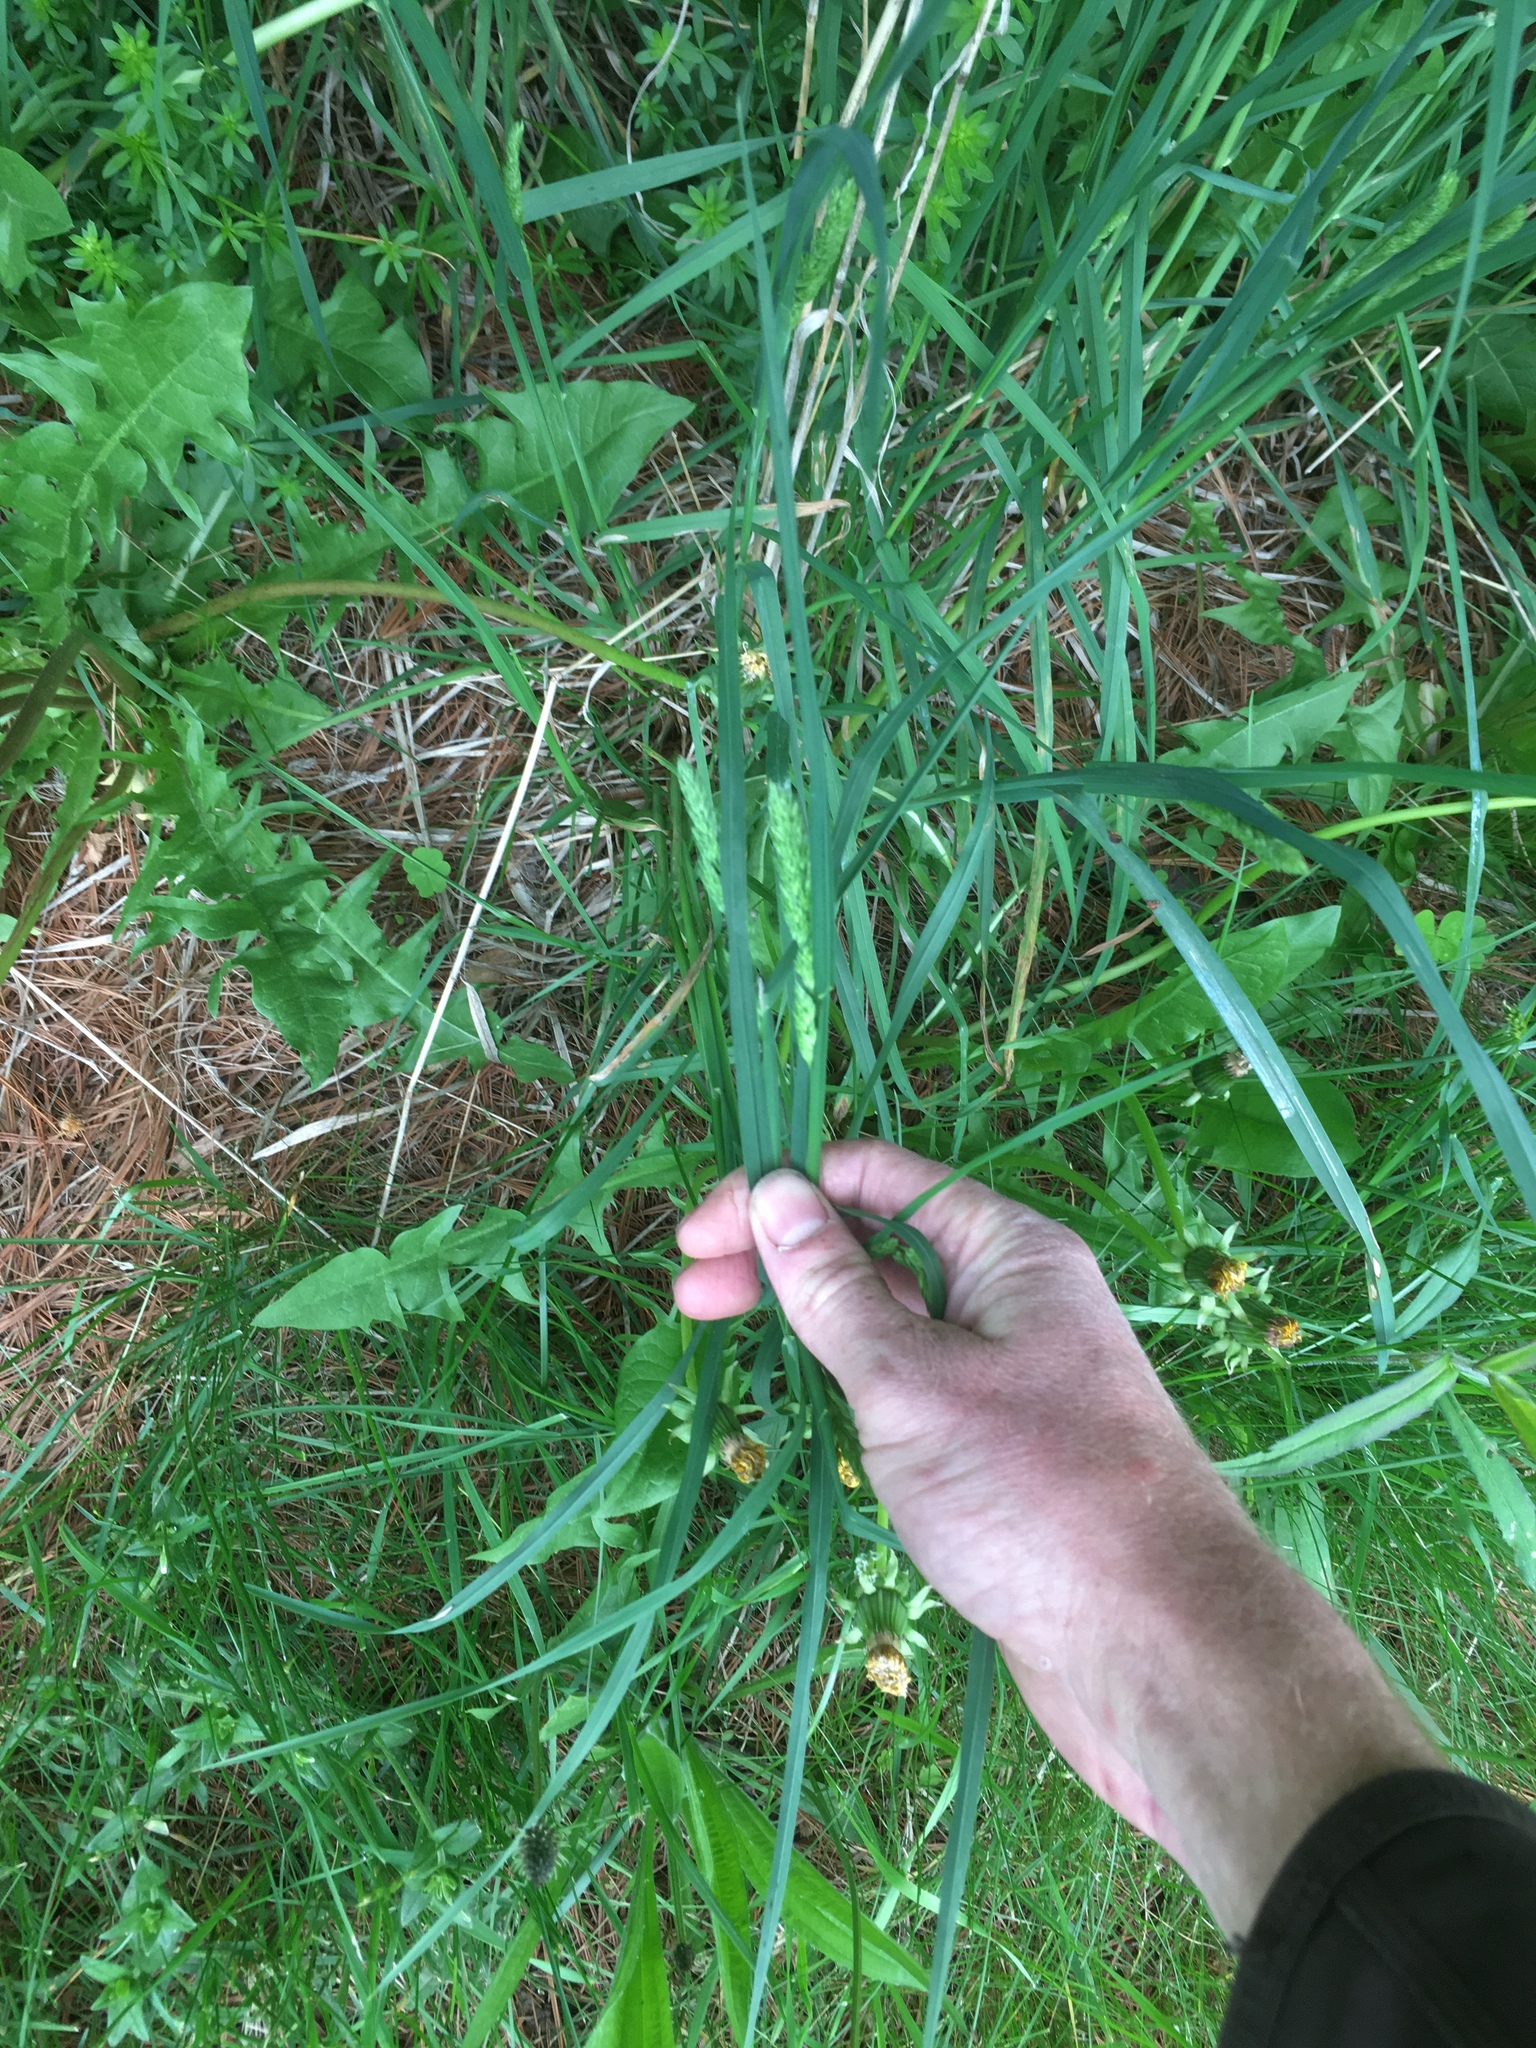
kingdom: Plantae
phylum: Tracheophyta
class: Liliopsida
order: Poales
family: Poaceae
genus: Dactylis
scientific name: Dactylis glomerata
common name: Orchardgrass
